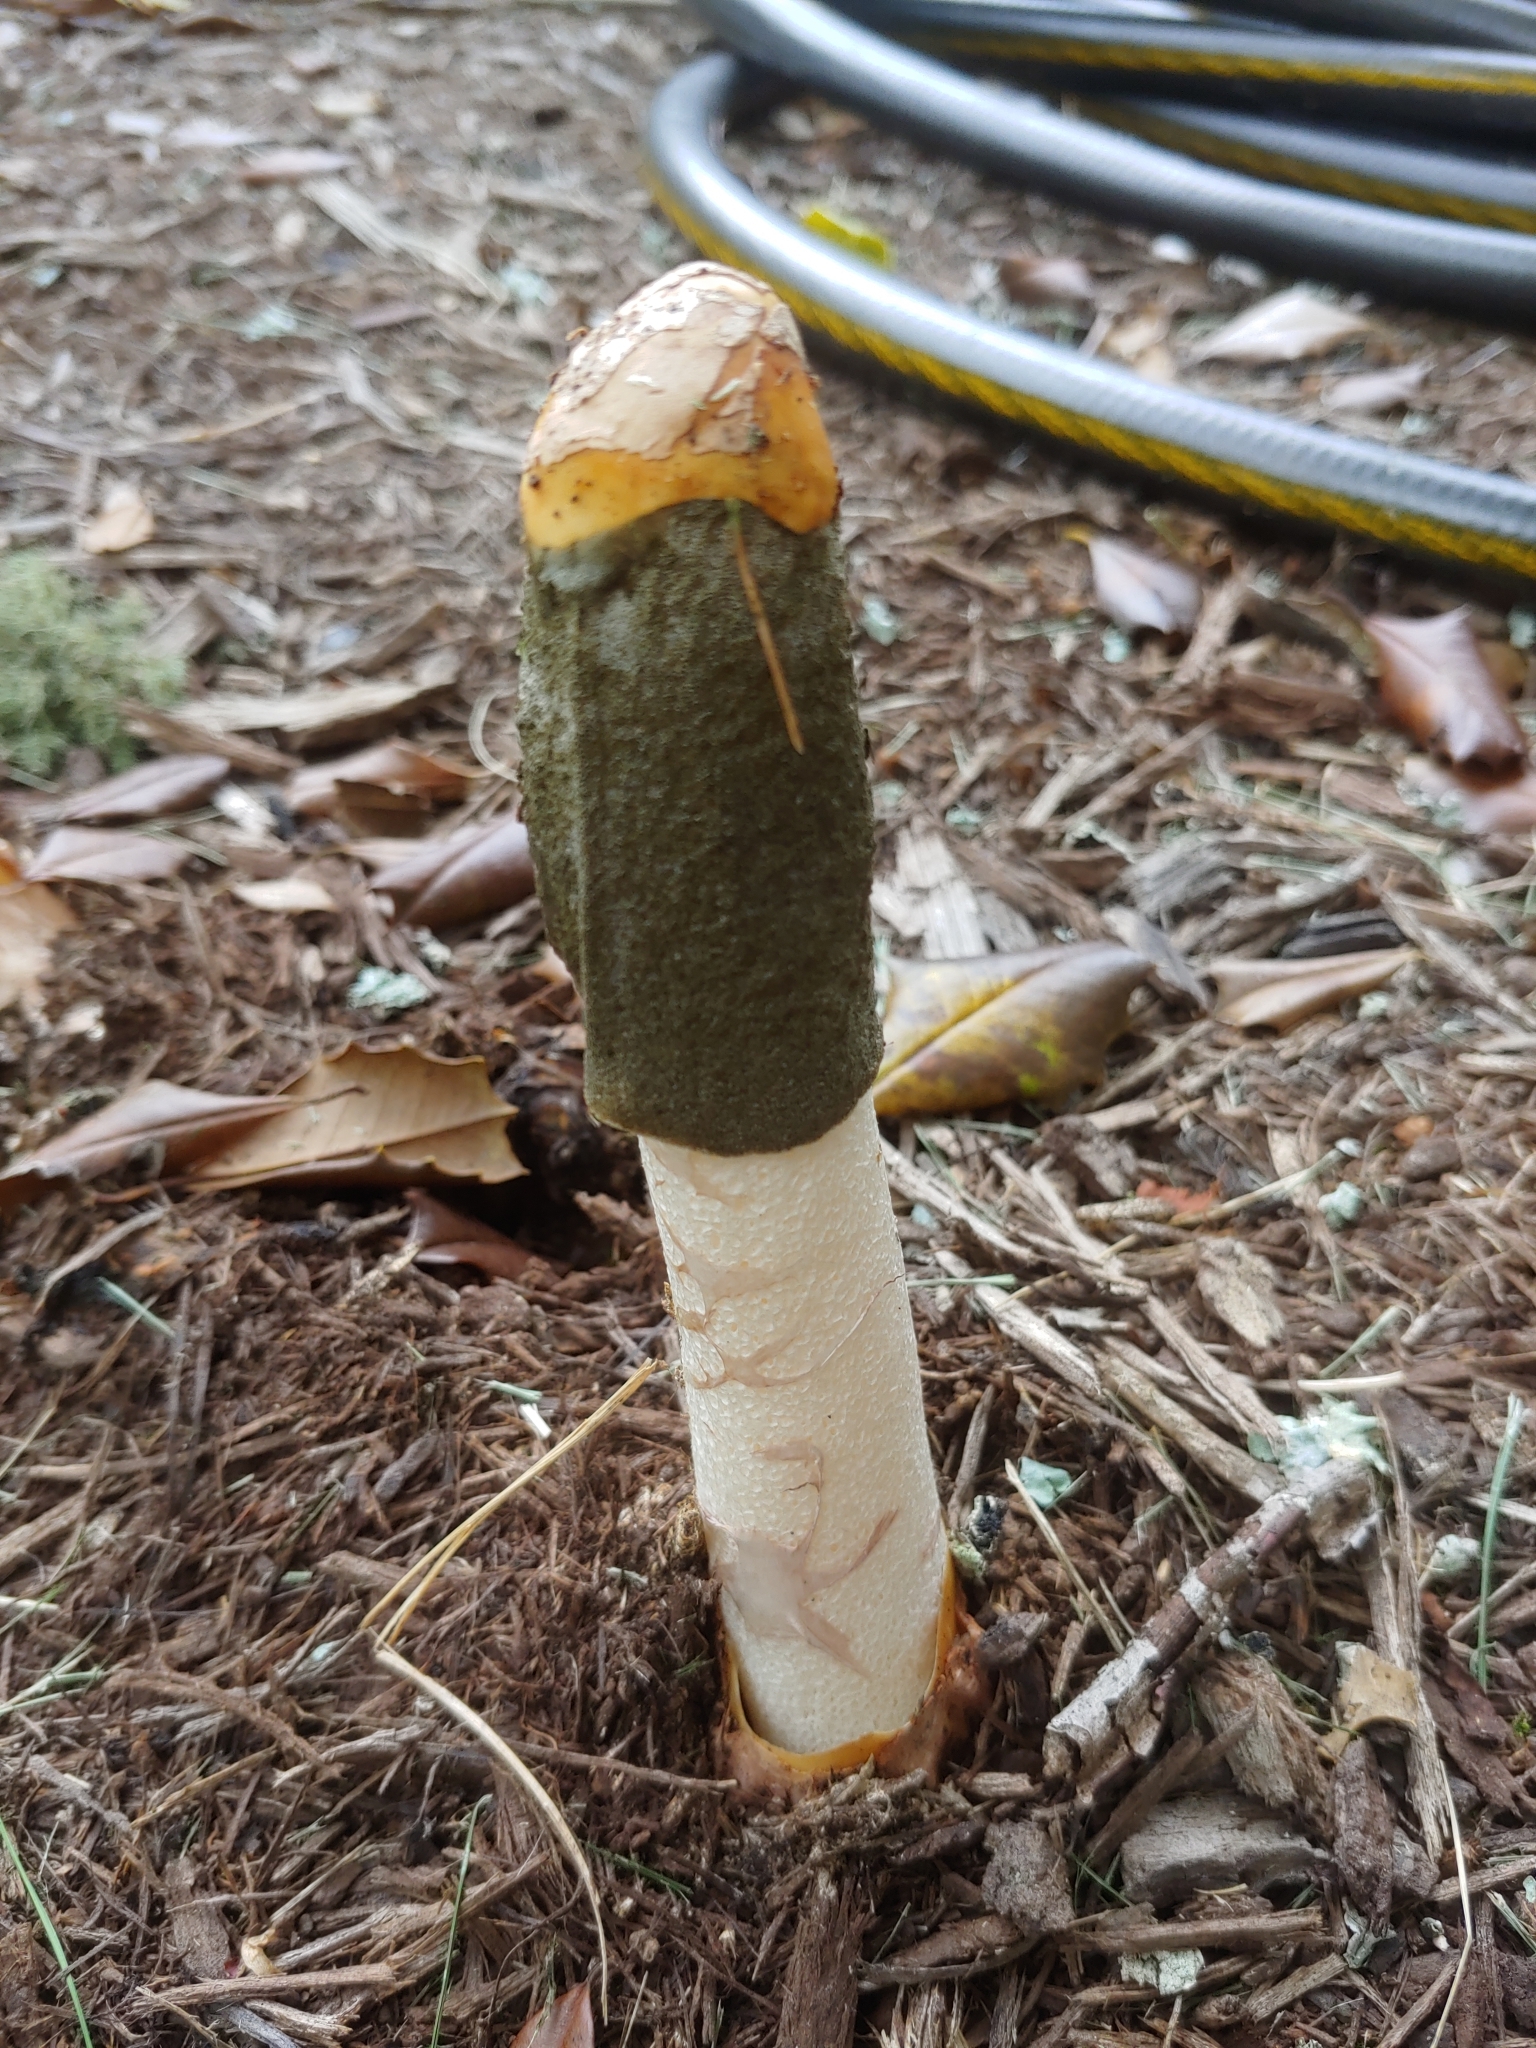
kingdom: Fungi
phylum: Basidiomycota
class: Agaricomycetes
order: Phallales
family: Phallaceae
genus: Phallus
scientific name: Phallus ravenelii
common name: Ravenel's stinkhorn
